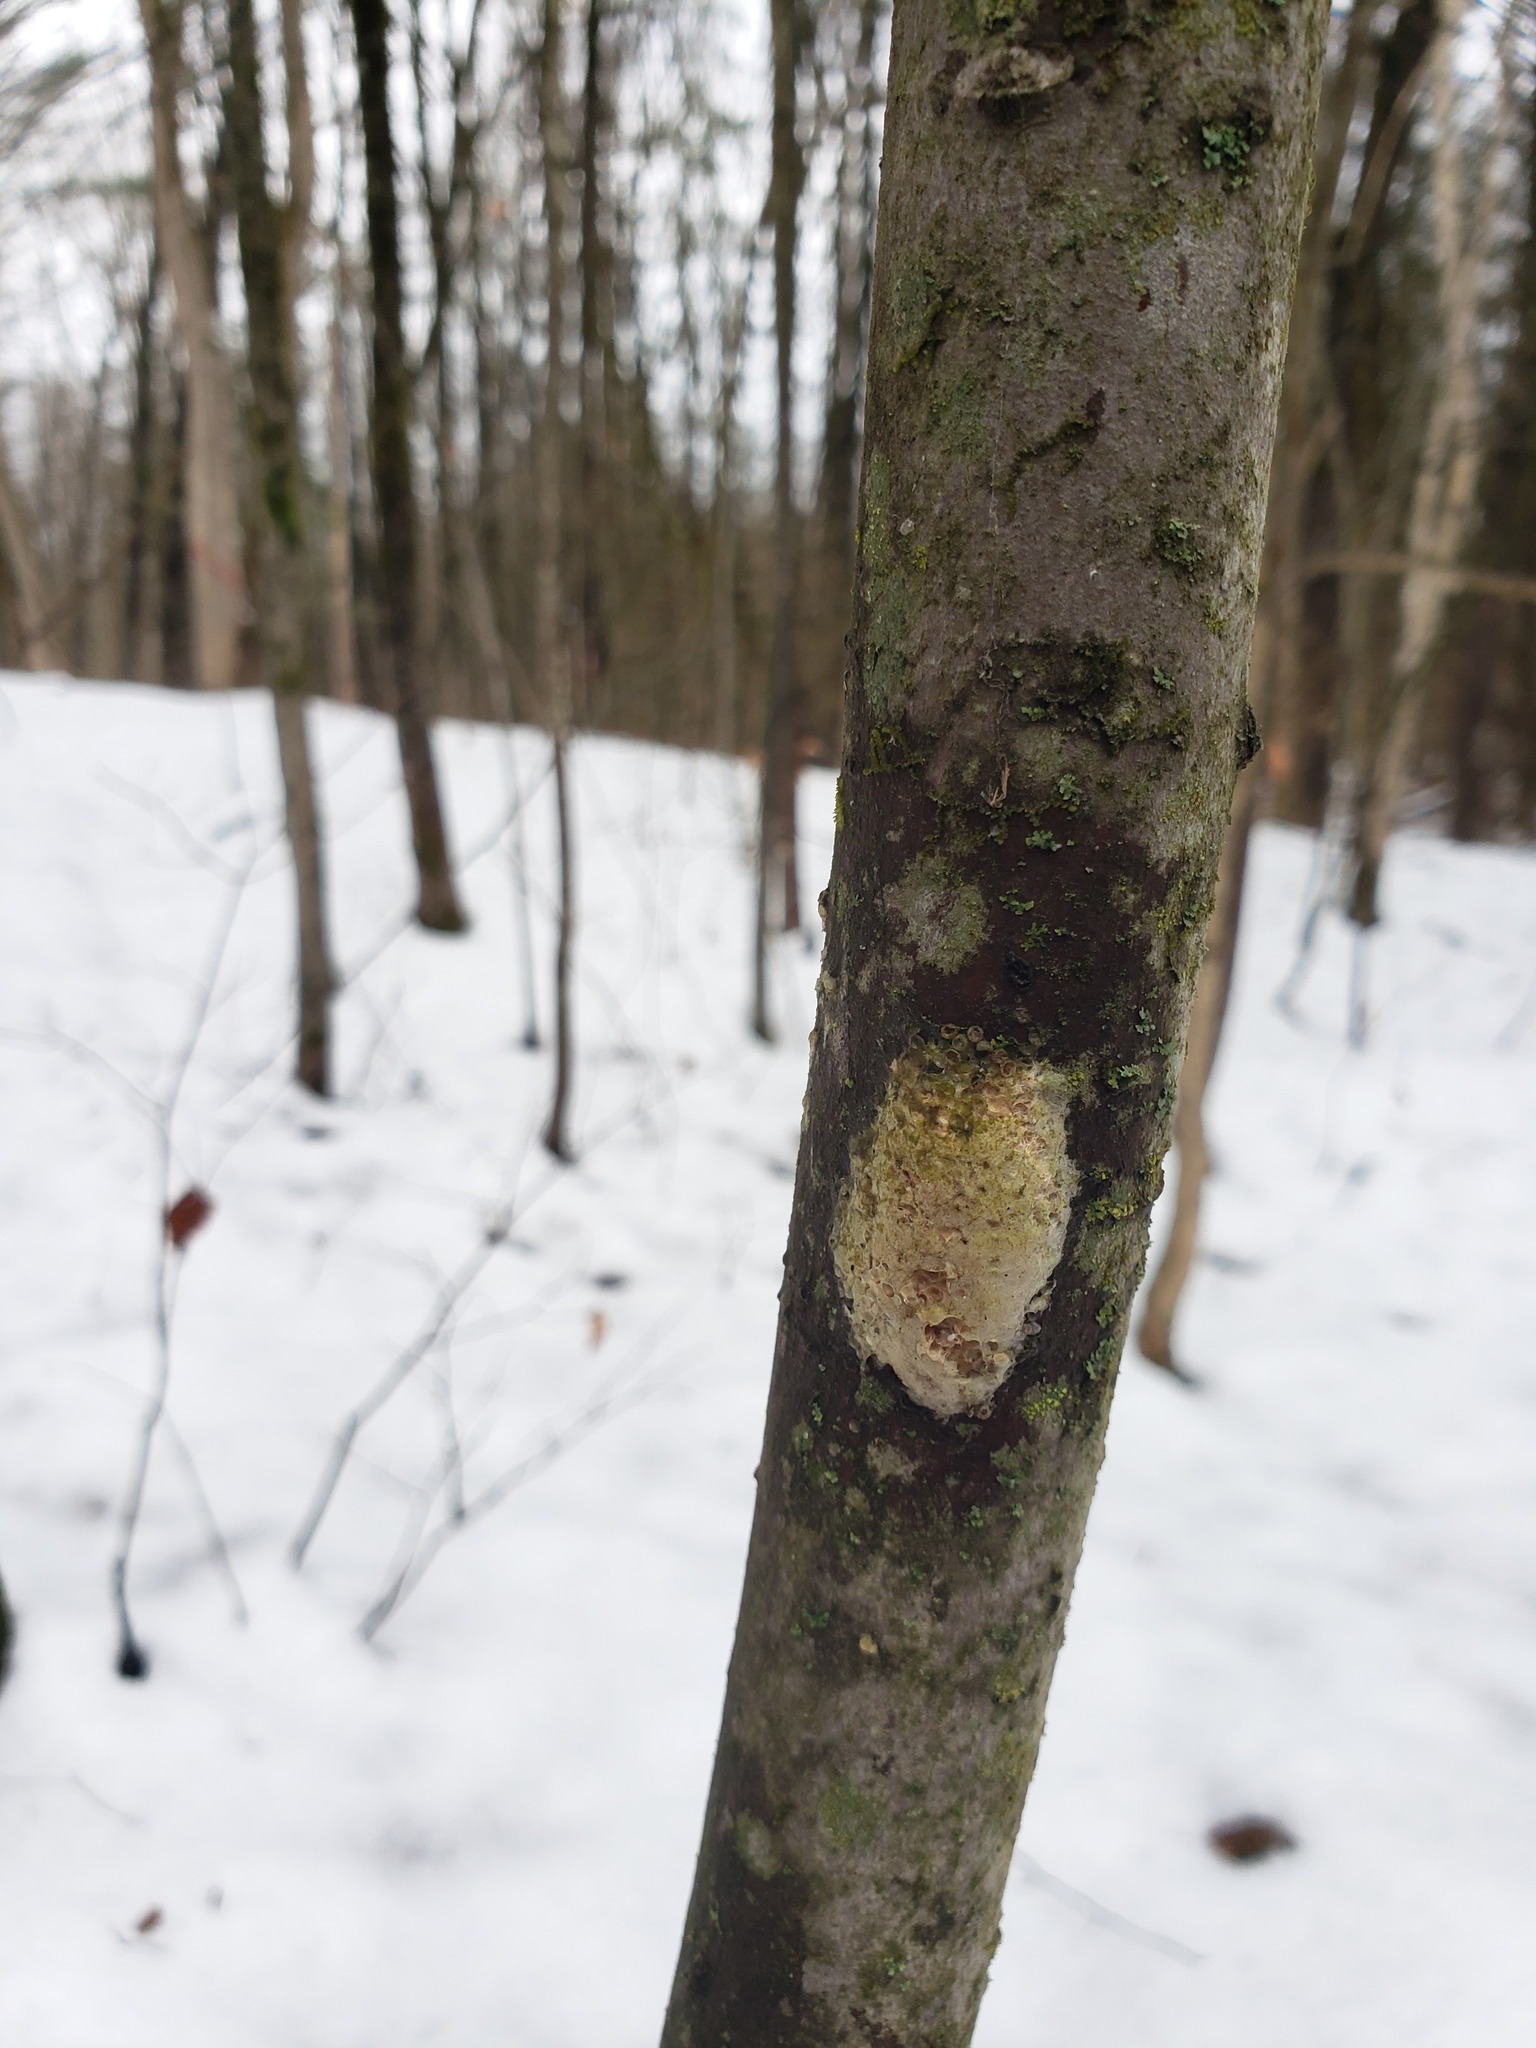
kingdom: Animalia
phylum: Arthropoda
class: Insecta
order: Lepidoptera
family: Erebidae
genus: Lymantria
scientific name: Lymantria dispar
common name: Gypsy moth
